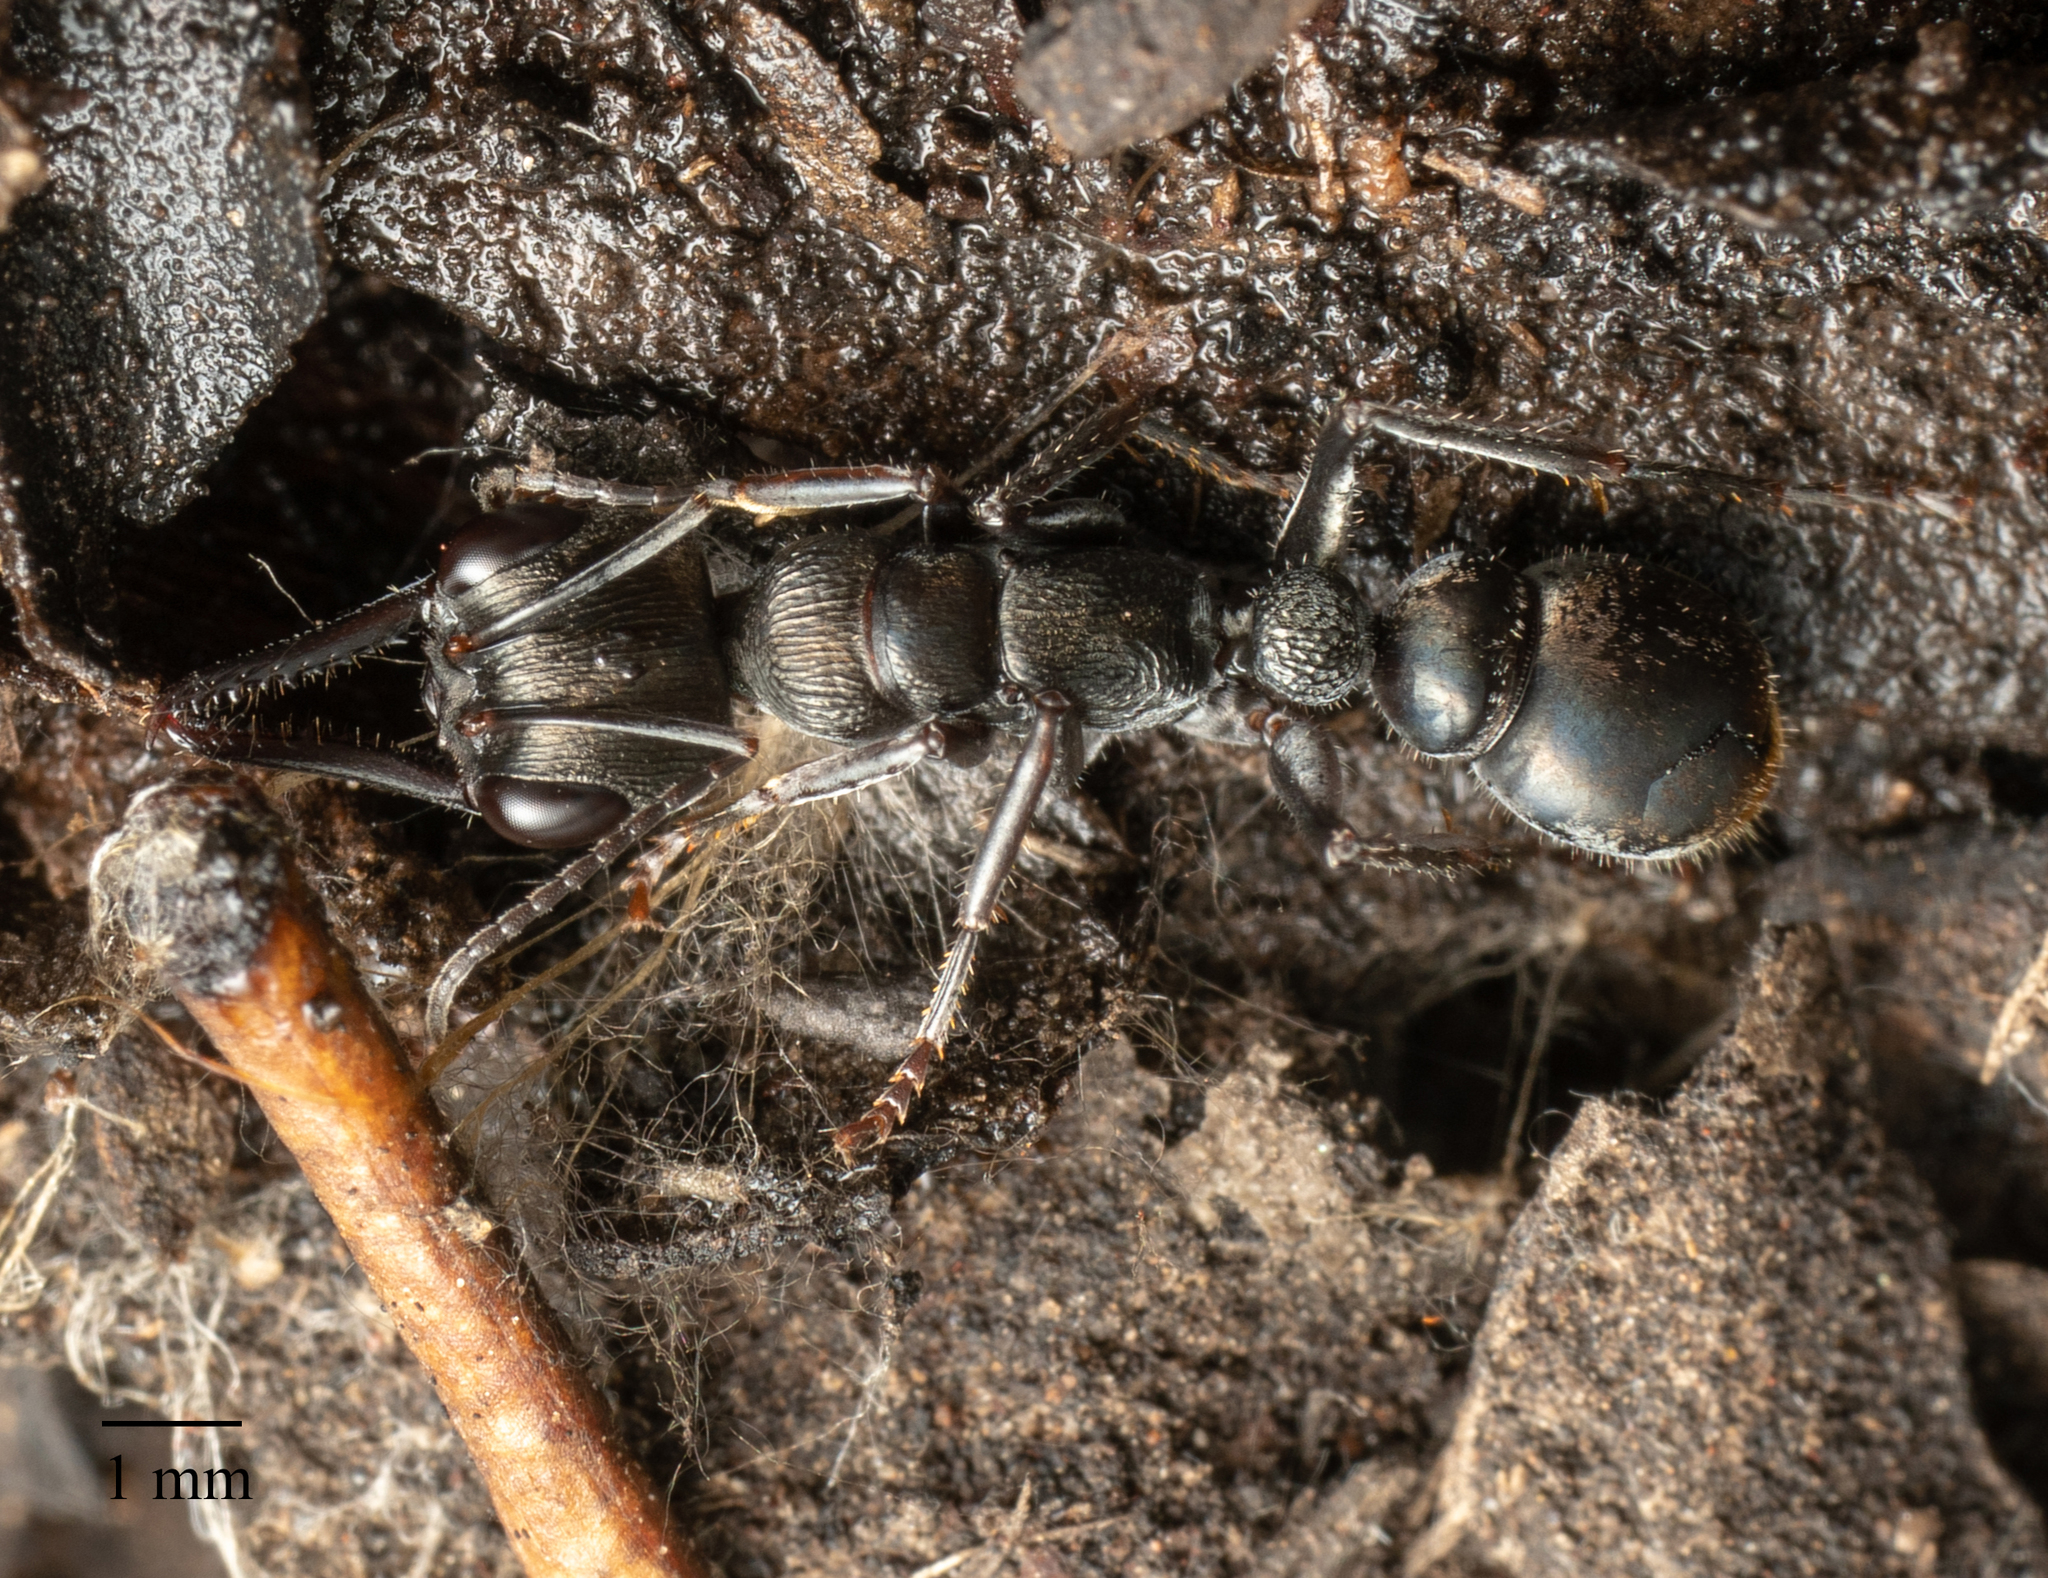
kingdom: Animalia
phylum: Arthropoda
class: Insecta
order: Hymenoptera
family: Formicidae
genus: Myrmecia
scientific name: Myrmecia tepperi
